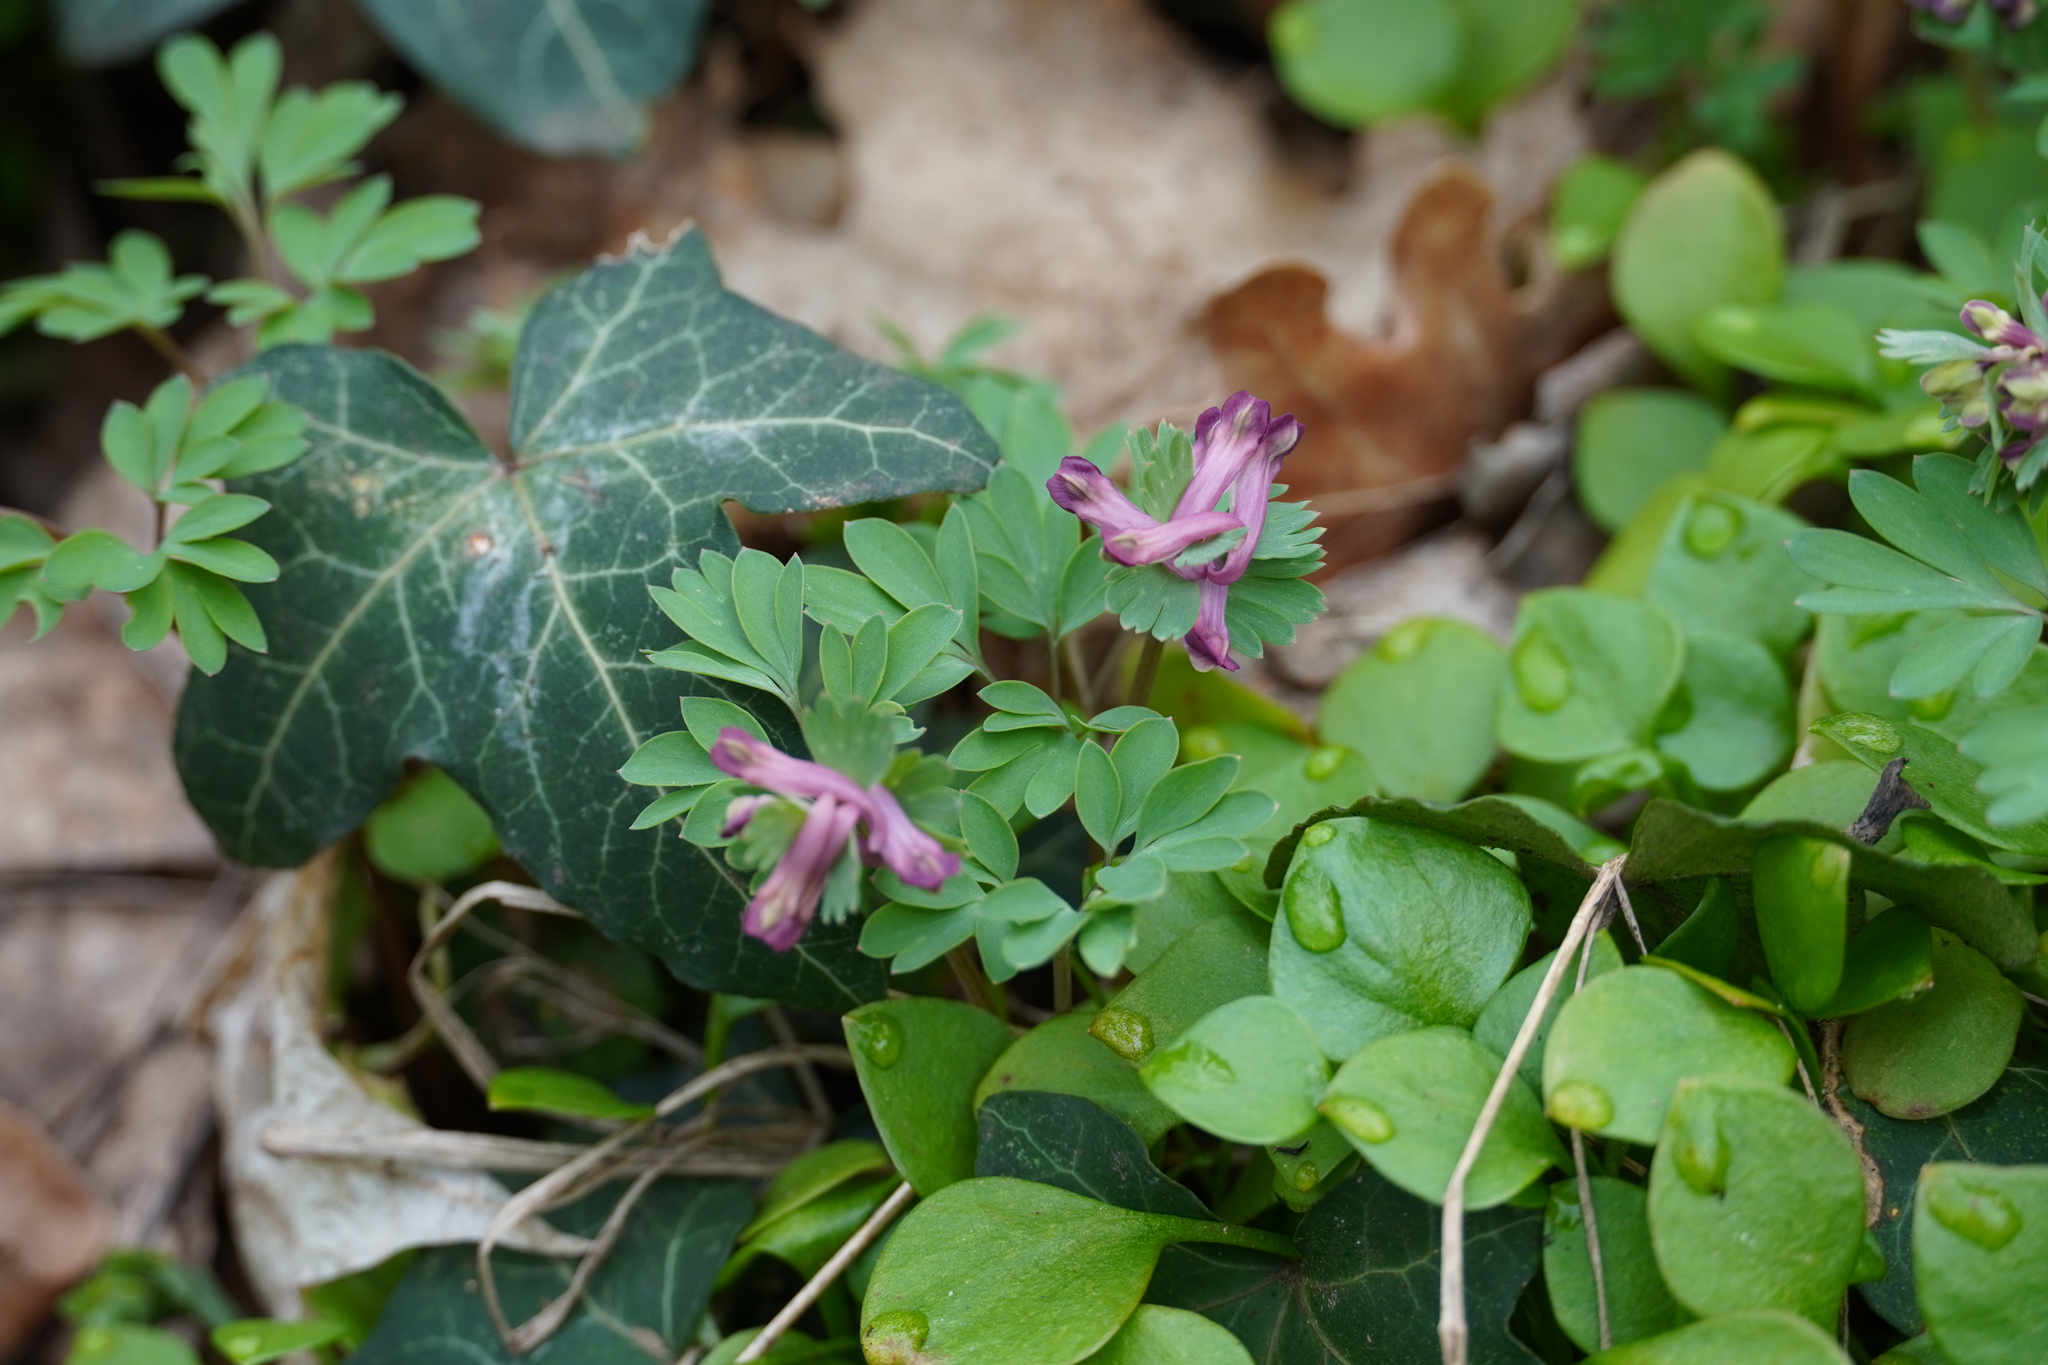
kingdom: Plantae
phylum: Tracheophyta
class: Magnoliopsida
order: Ranunculales
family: Papaveraceae
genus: Corydalis
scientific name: Corydalis solida
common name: Bird-in-a-bush
